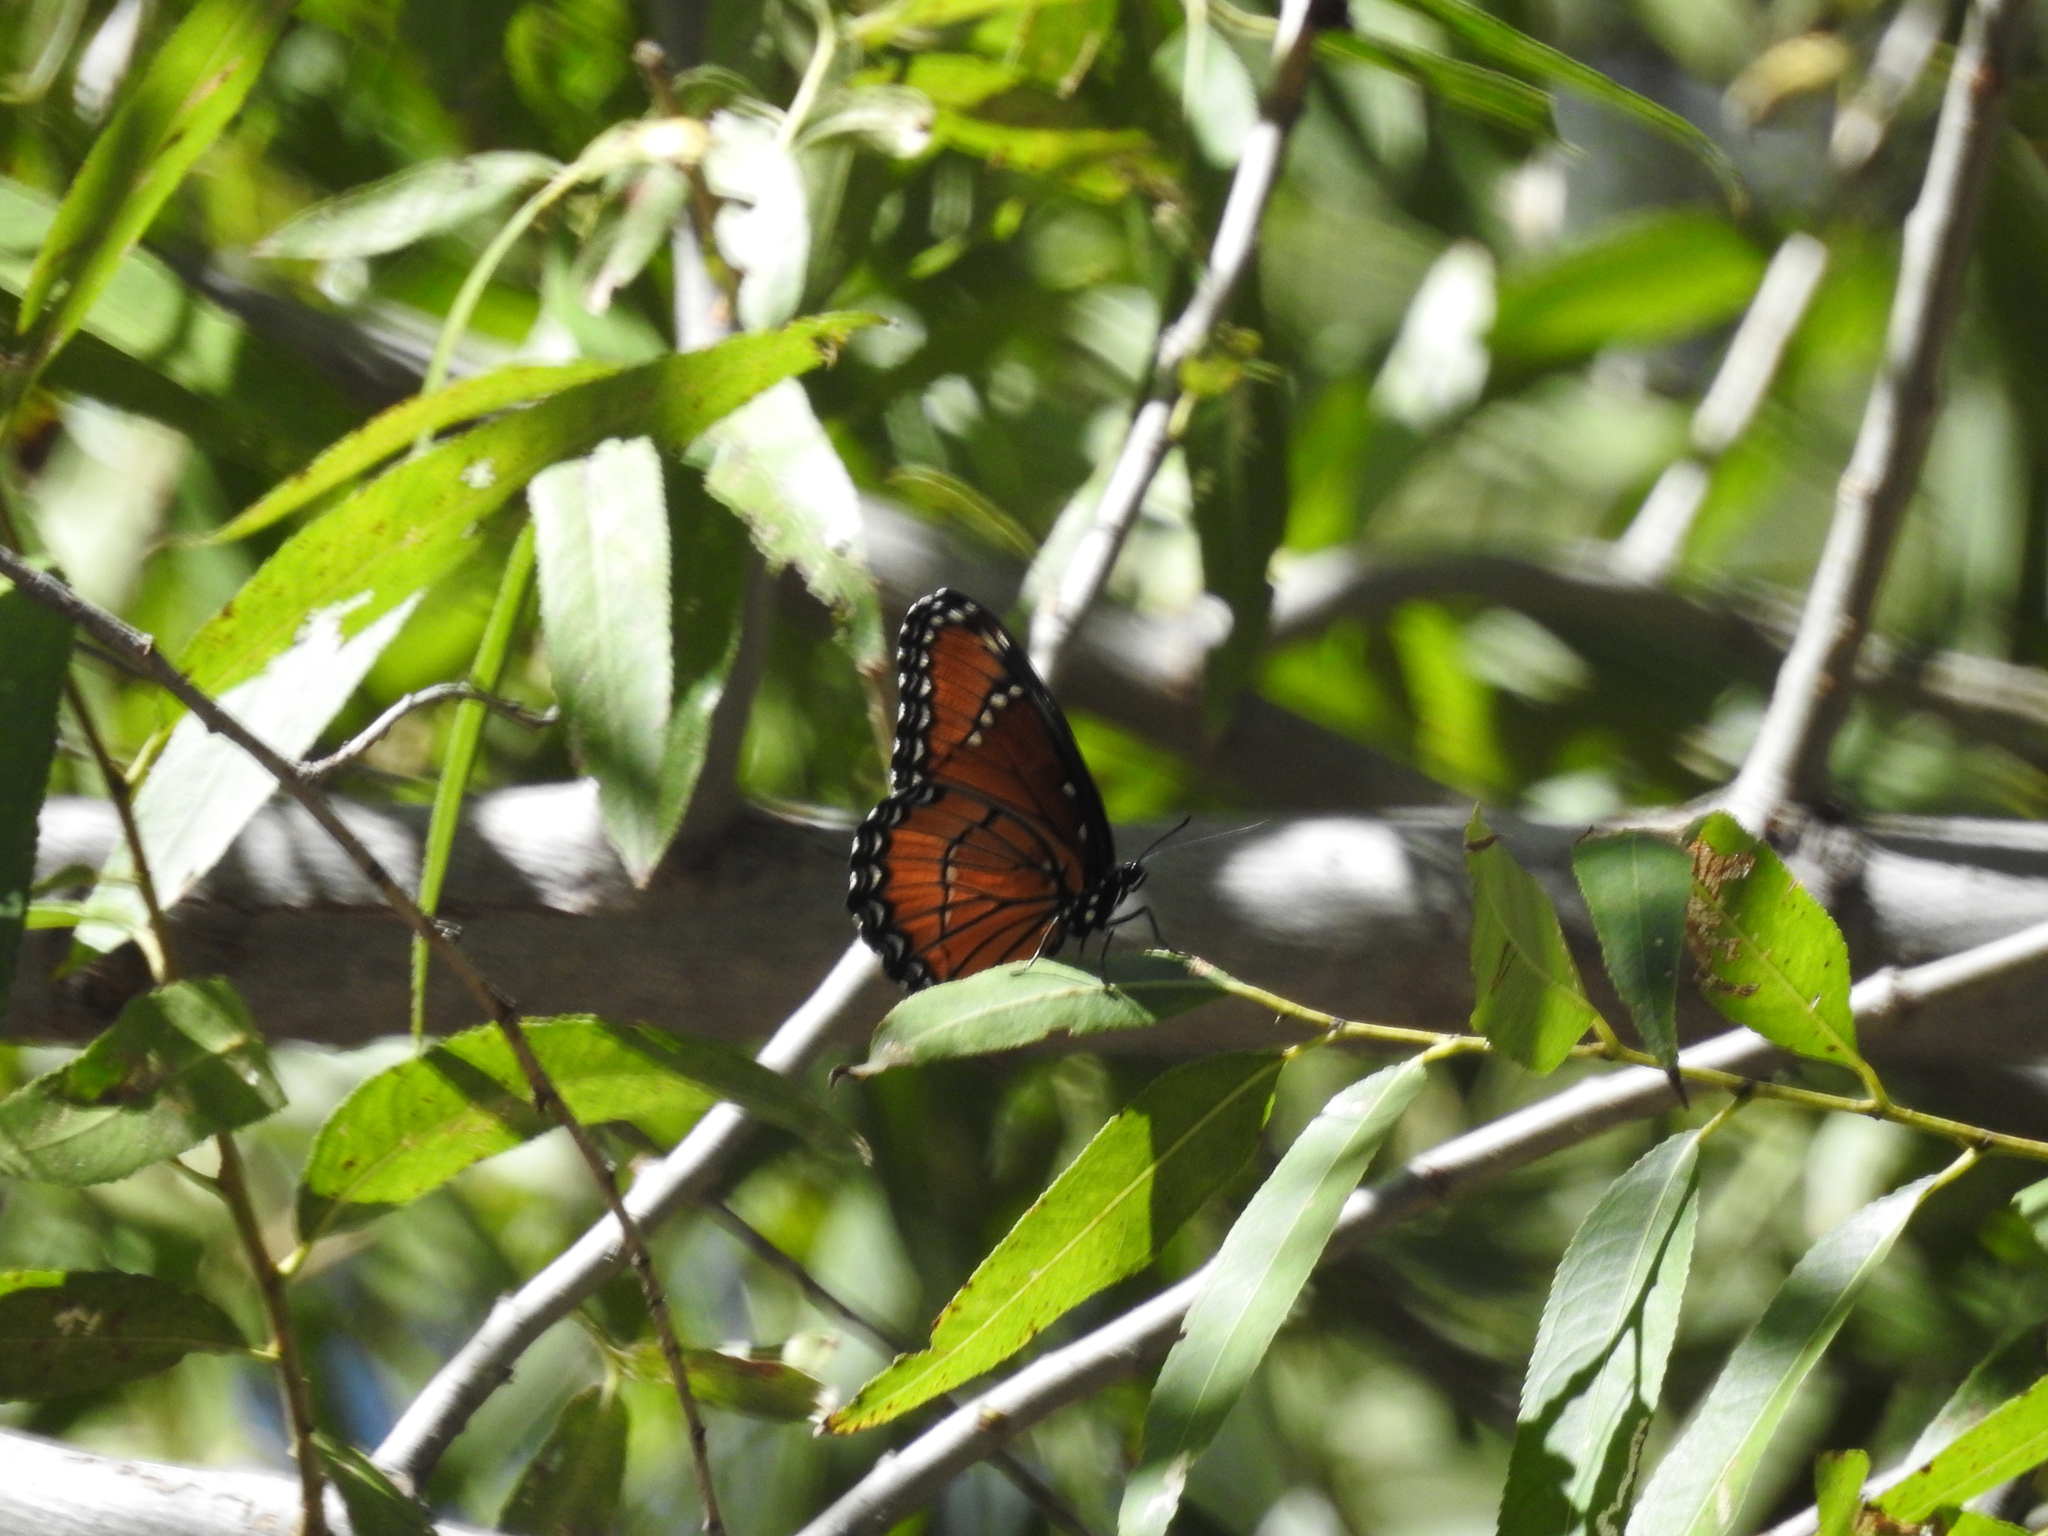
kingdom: Animalia
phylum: Arthropoda
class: Insecta
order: Lepidoptera
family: Nymphalidae
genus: Limenitis
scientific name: Limenitis archippus
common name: Viceroy
